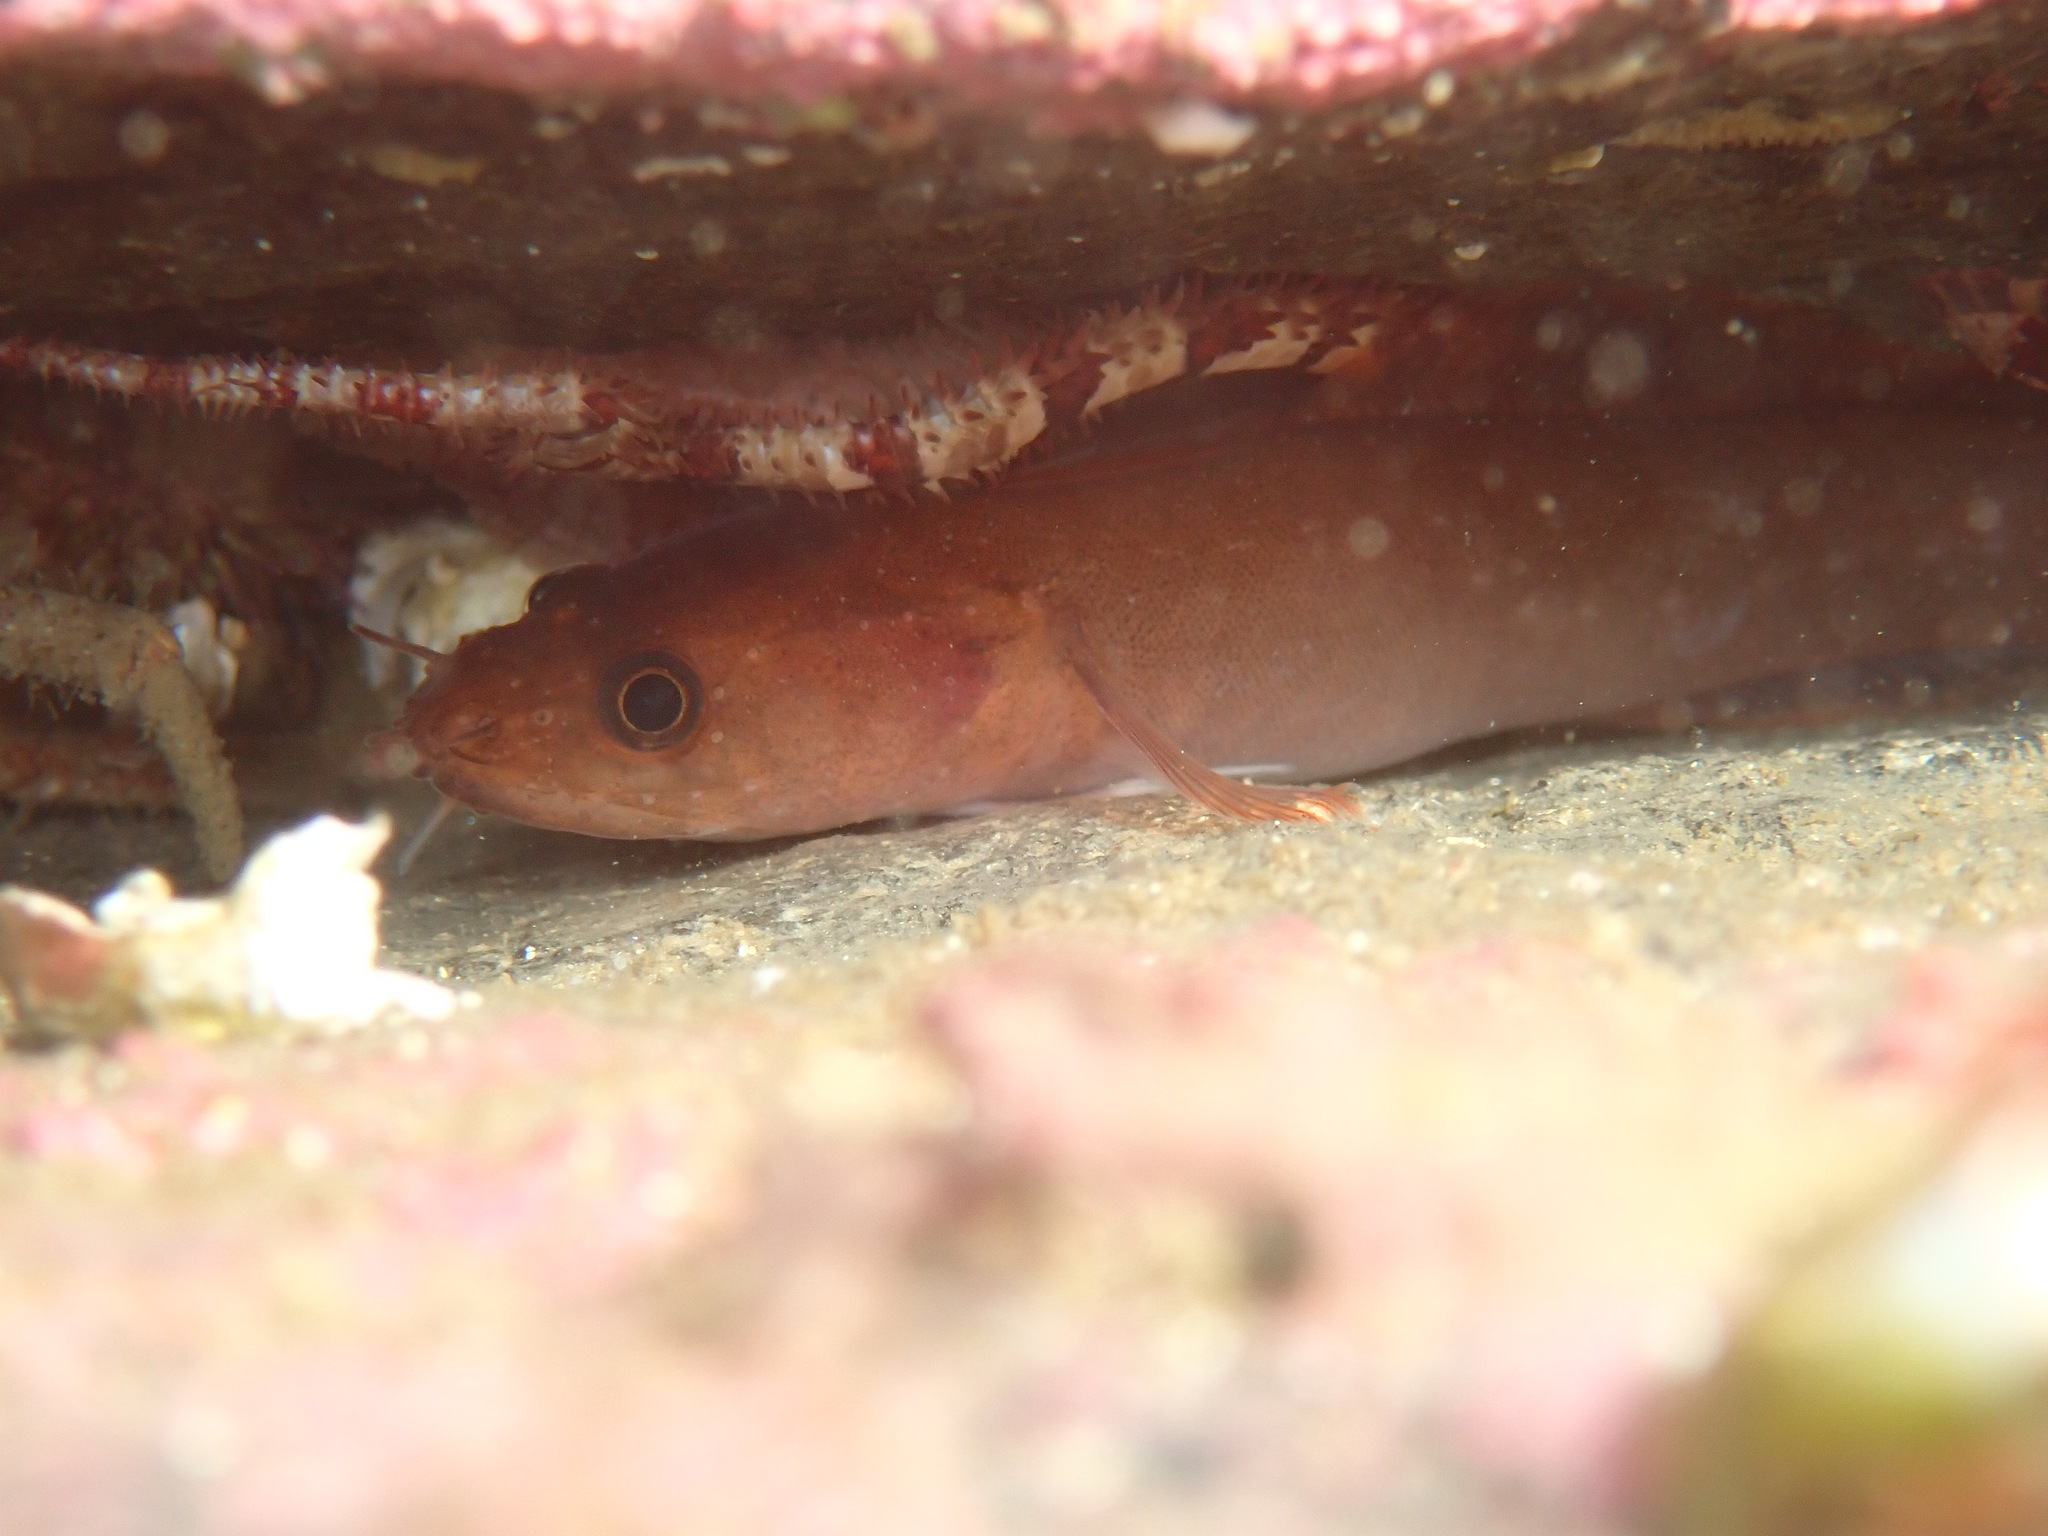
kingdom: Animalia
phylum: Chordata
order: Gadiformes
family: Lotidae
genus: Ciliata
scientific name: Ciliata septentrionalis
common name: Northern rockling
